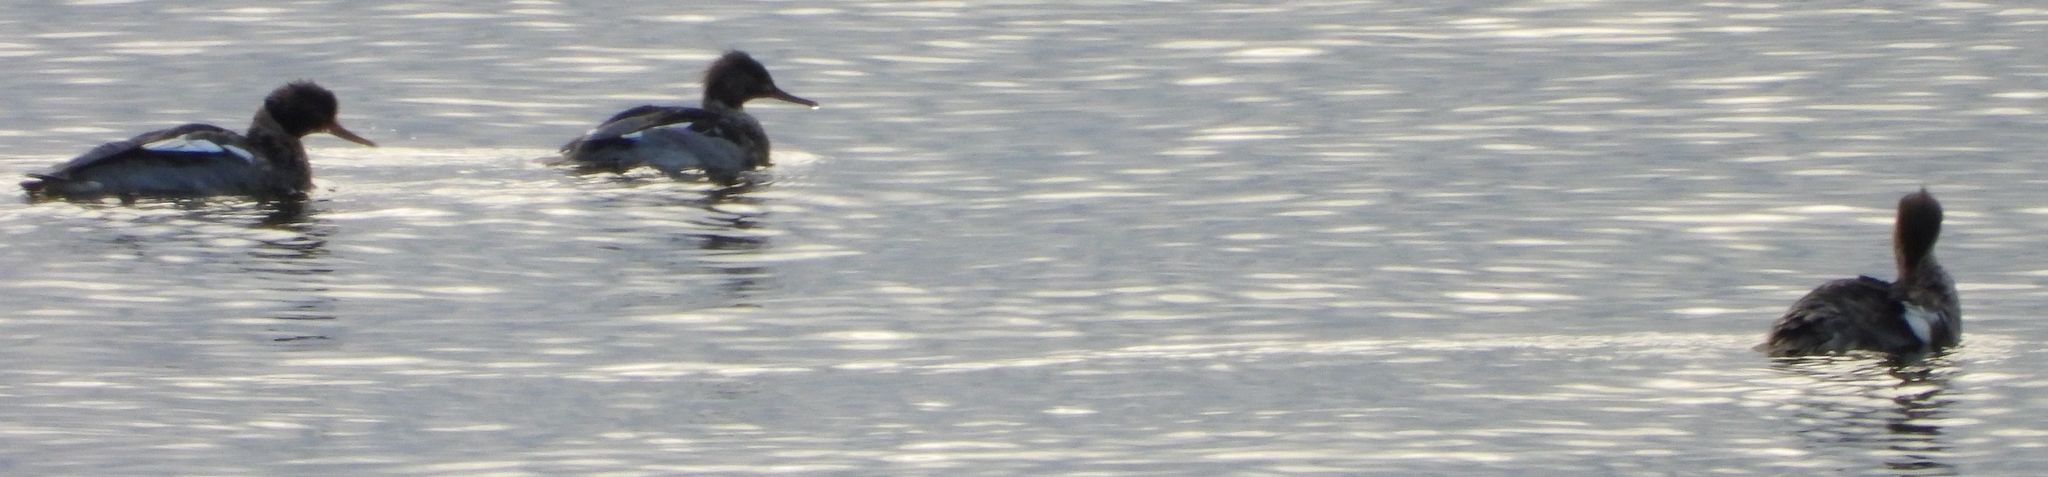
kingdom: Animalia
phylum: Chordata
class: Aves
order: Anseriformes
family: Anatidae
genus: Mergus
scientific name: Mergus serrator
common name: Red-breasted merganser
